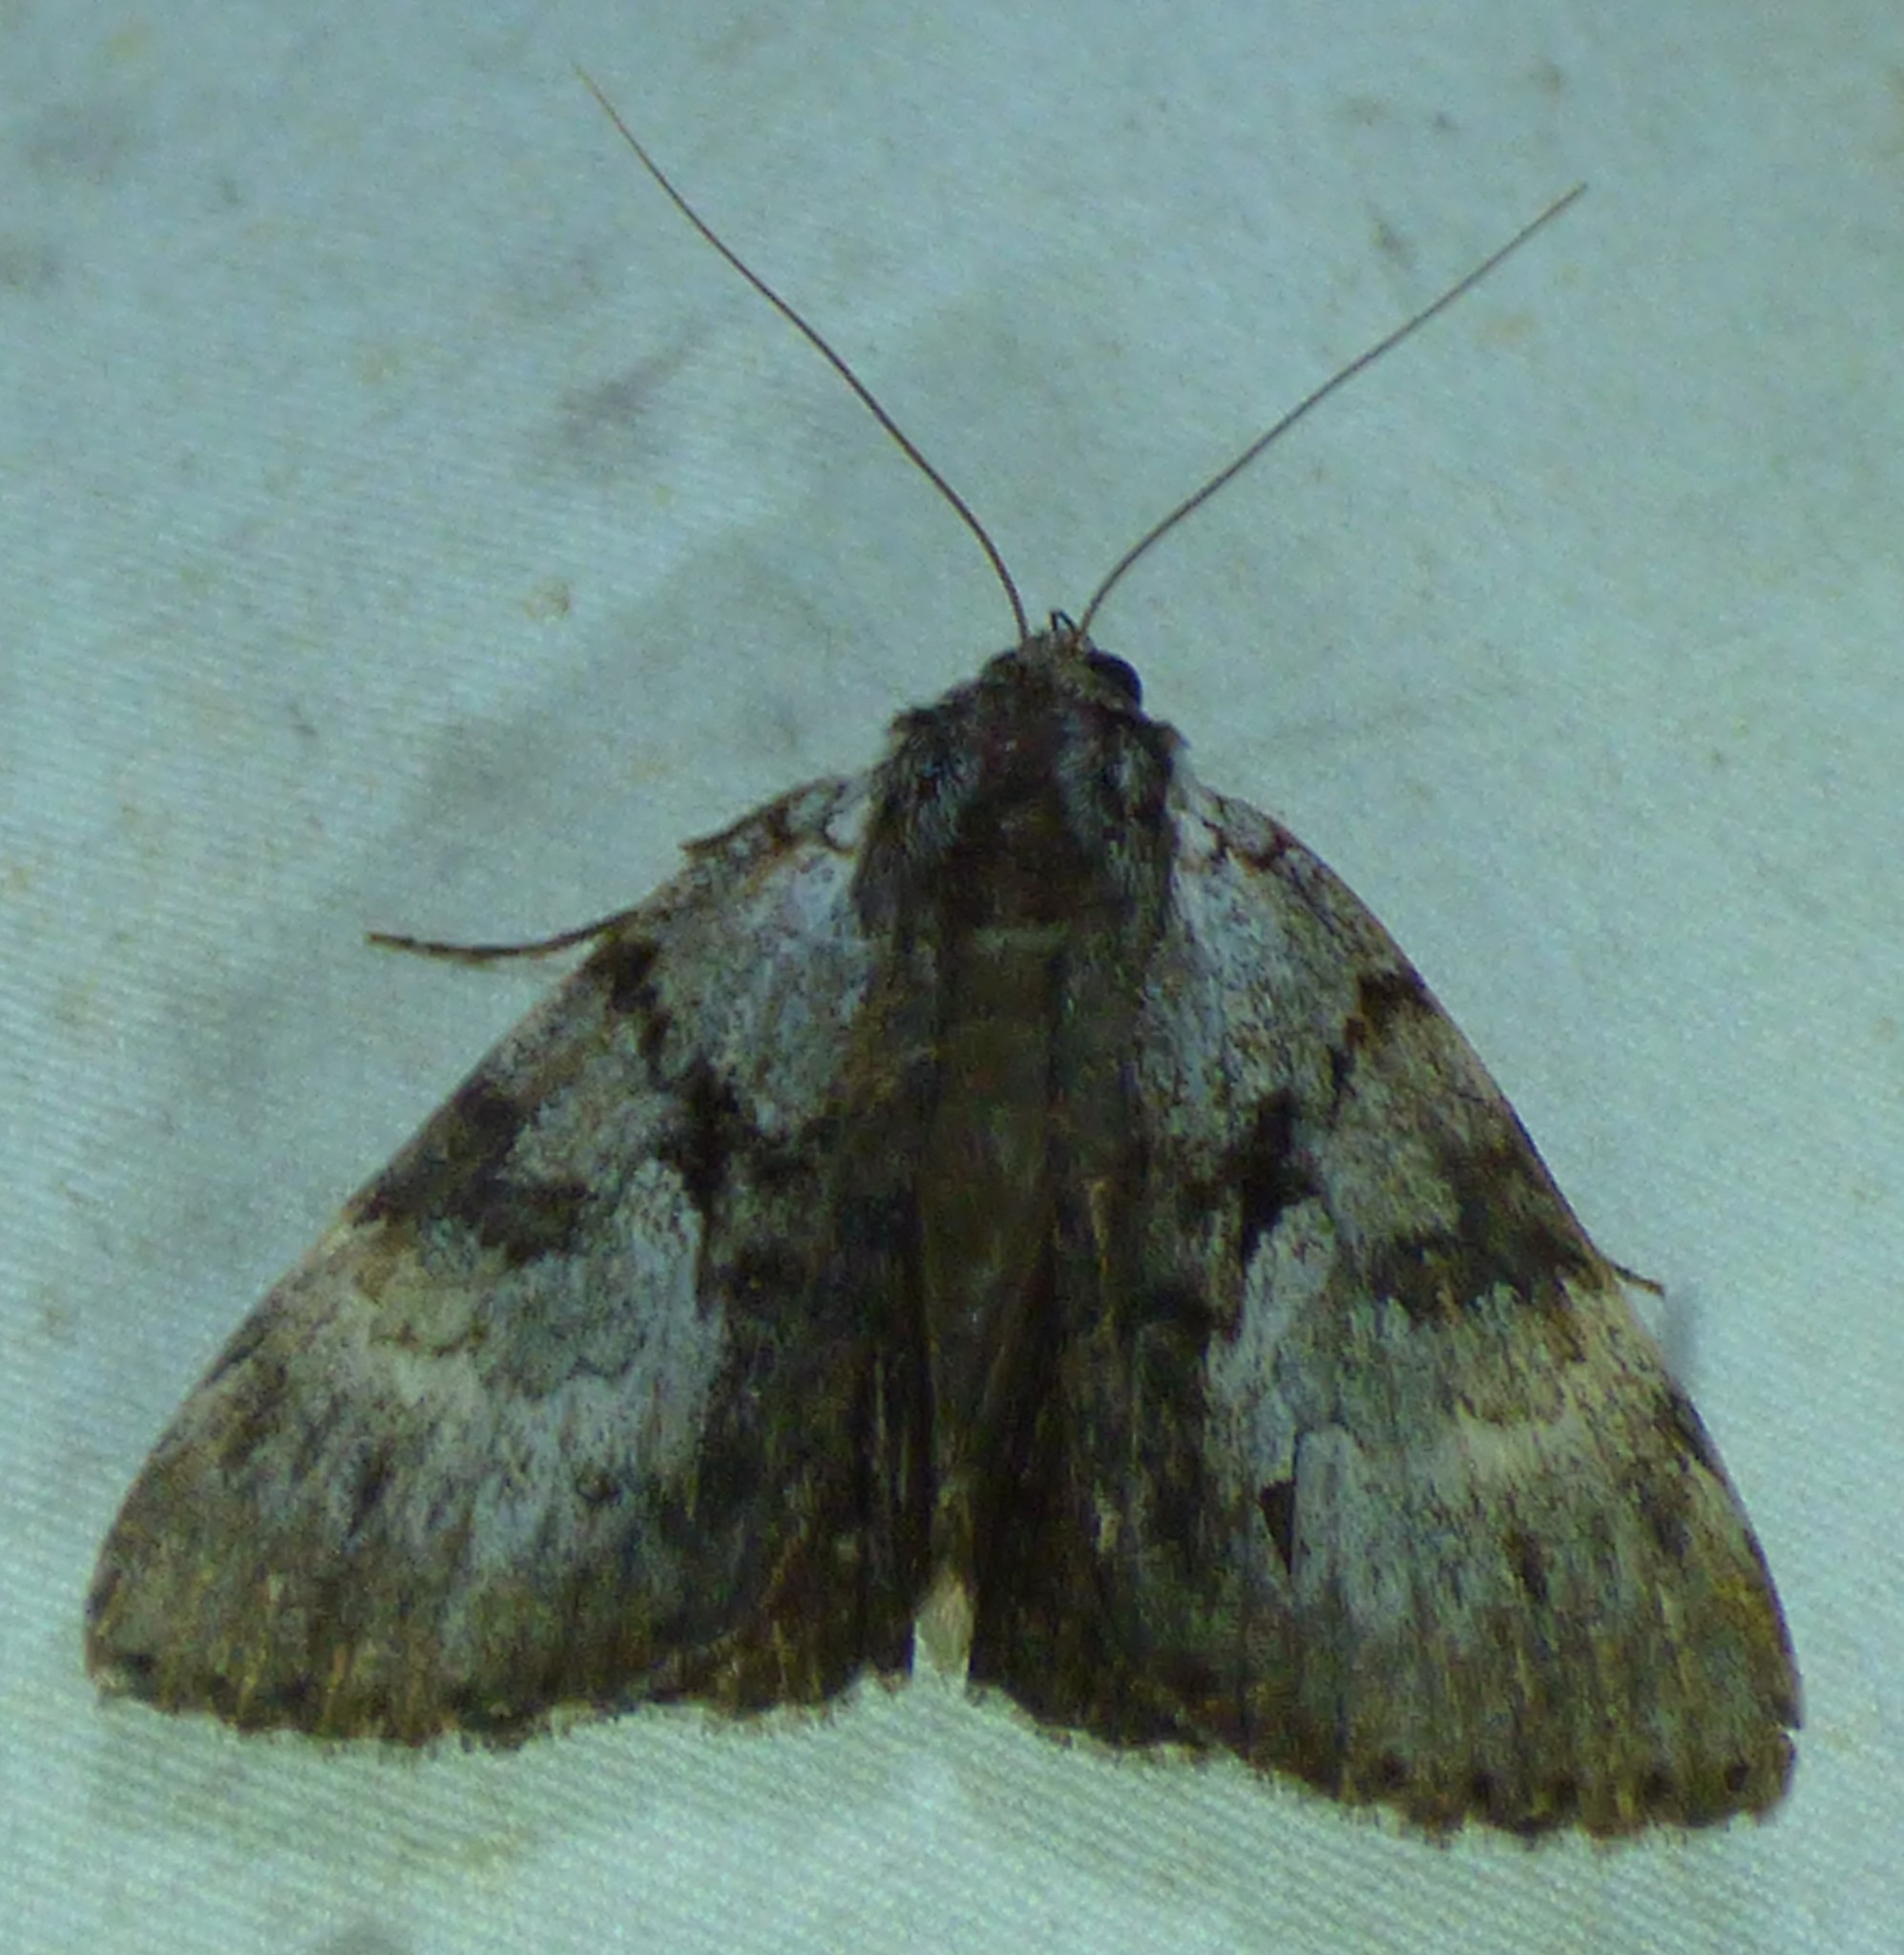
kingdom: Animalia
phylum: Arthropoda
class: Insecta
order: Lepidoptera
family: Erebidae
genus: Catocala
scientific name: Catocala andromedae
